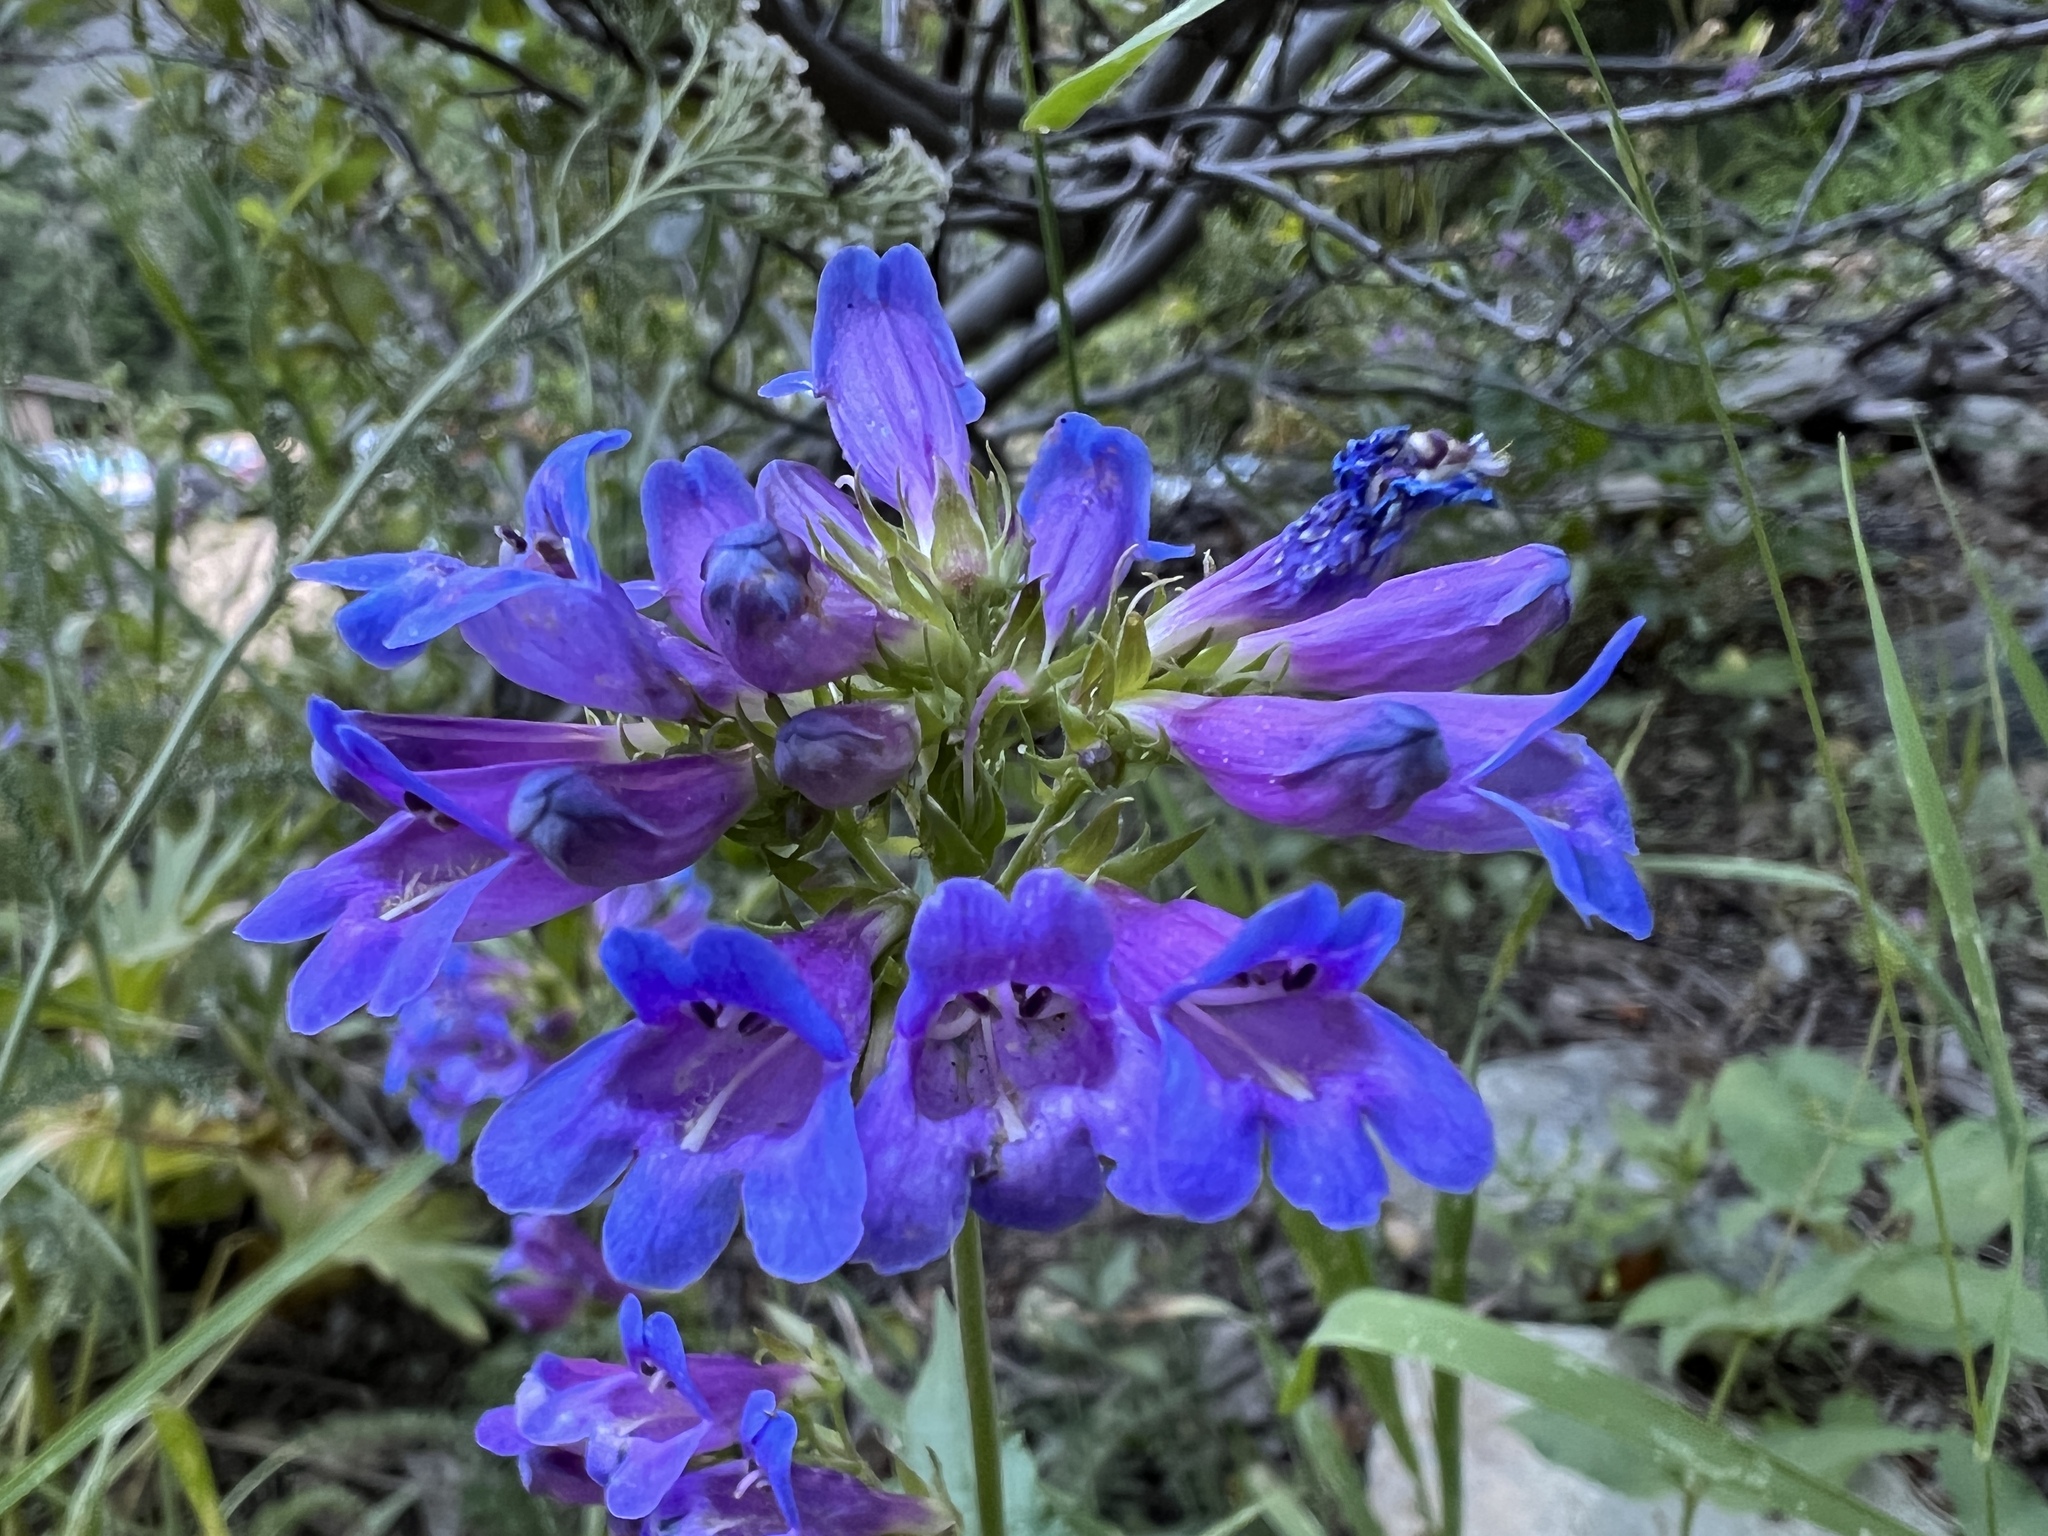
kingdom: Plantae
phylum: Tracheophyta
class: Magnoliopsida
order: Lamiales
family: Plantaginaceae
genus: Penstemon
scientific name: Penstemon serrulatus
